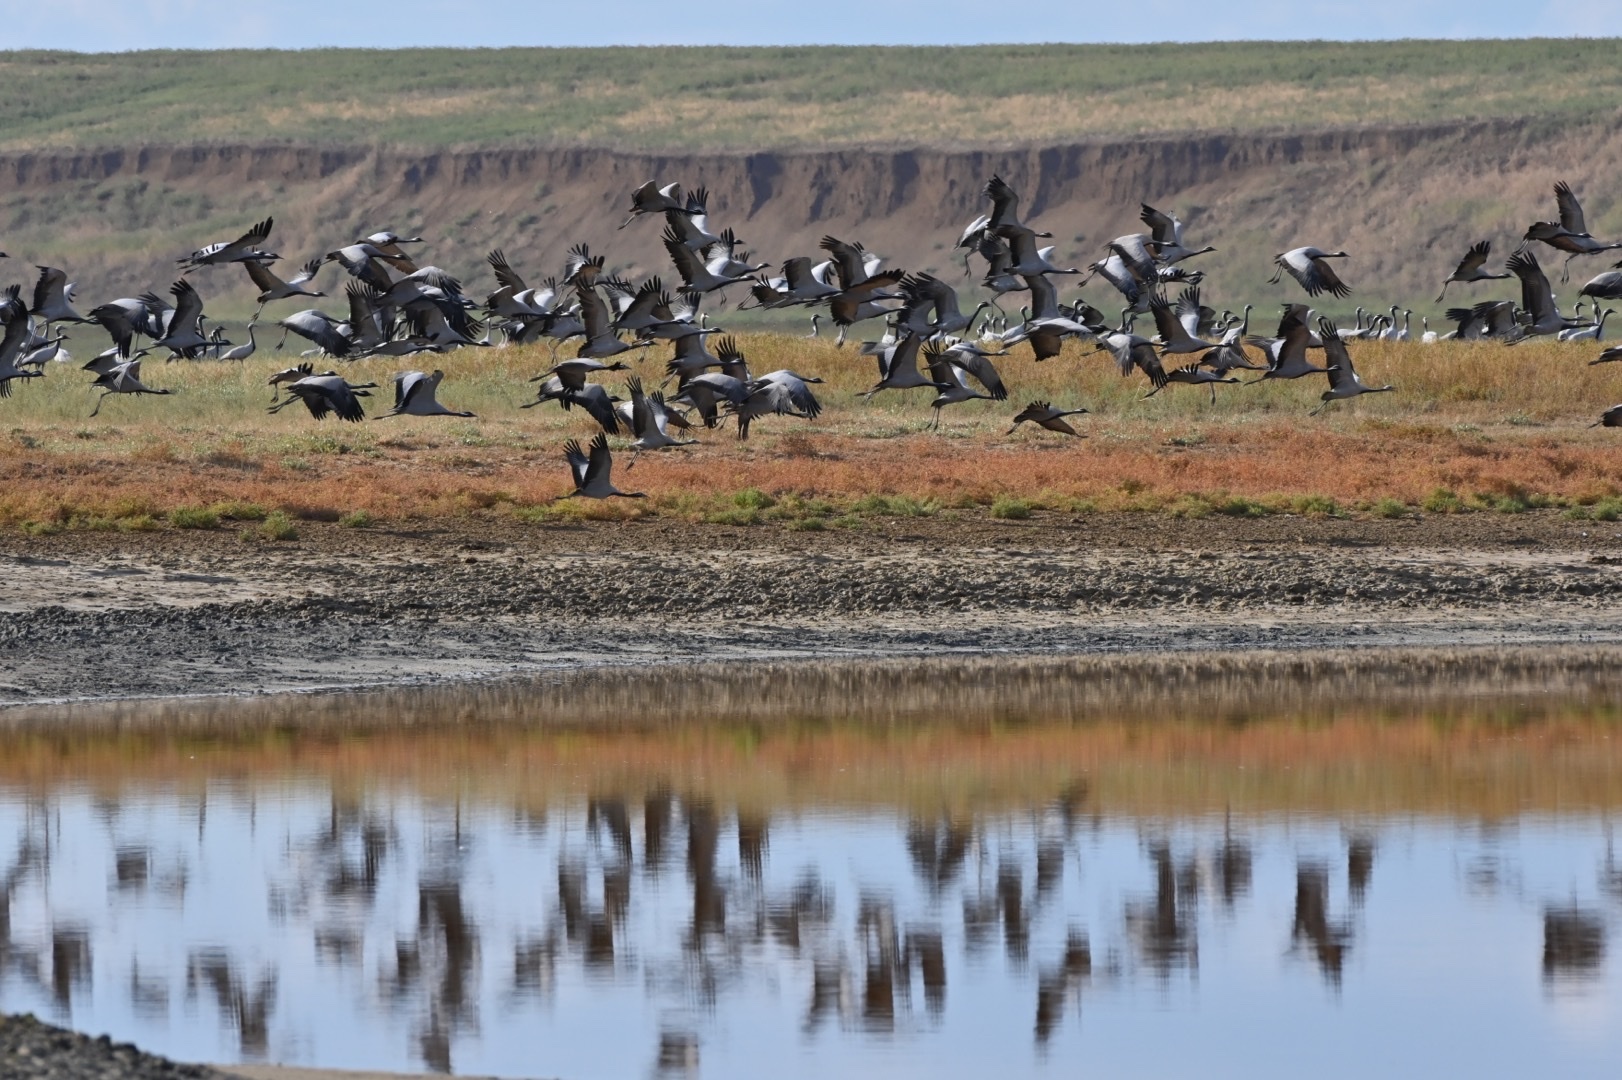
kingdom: Animalia
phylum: Chordata
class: Aves
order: Gruiformes
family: Gruidae
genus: Anthropoides
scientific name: Anthropoides virgo
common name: Demoiselle crane
